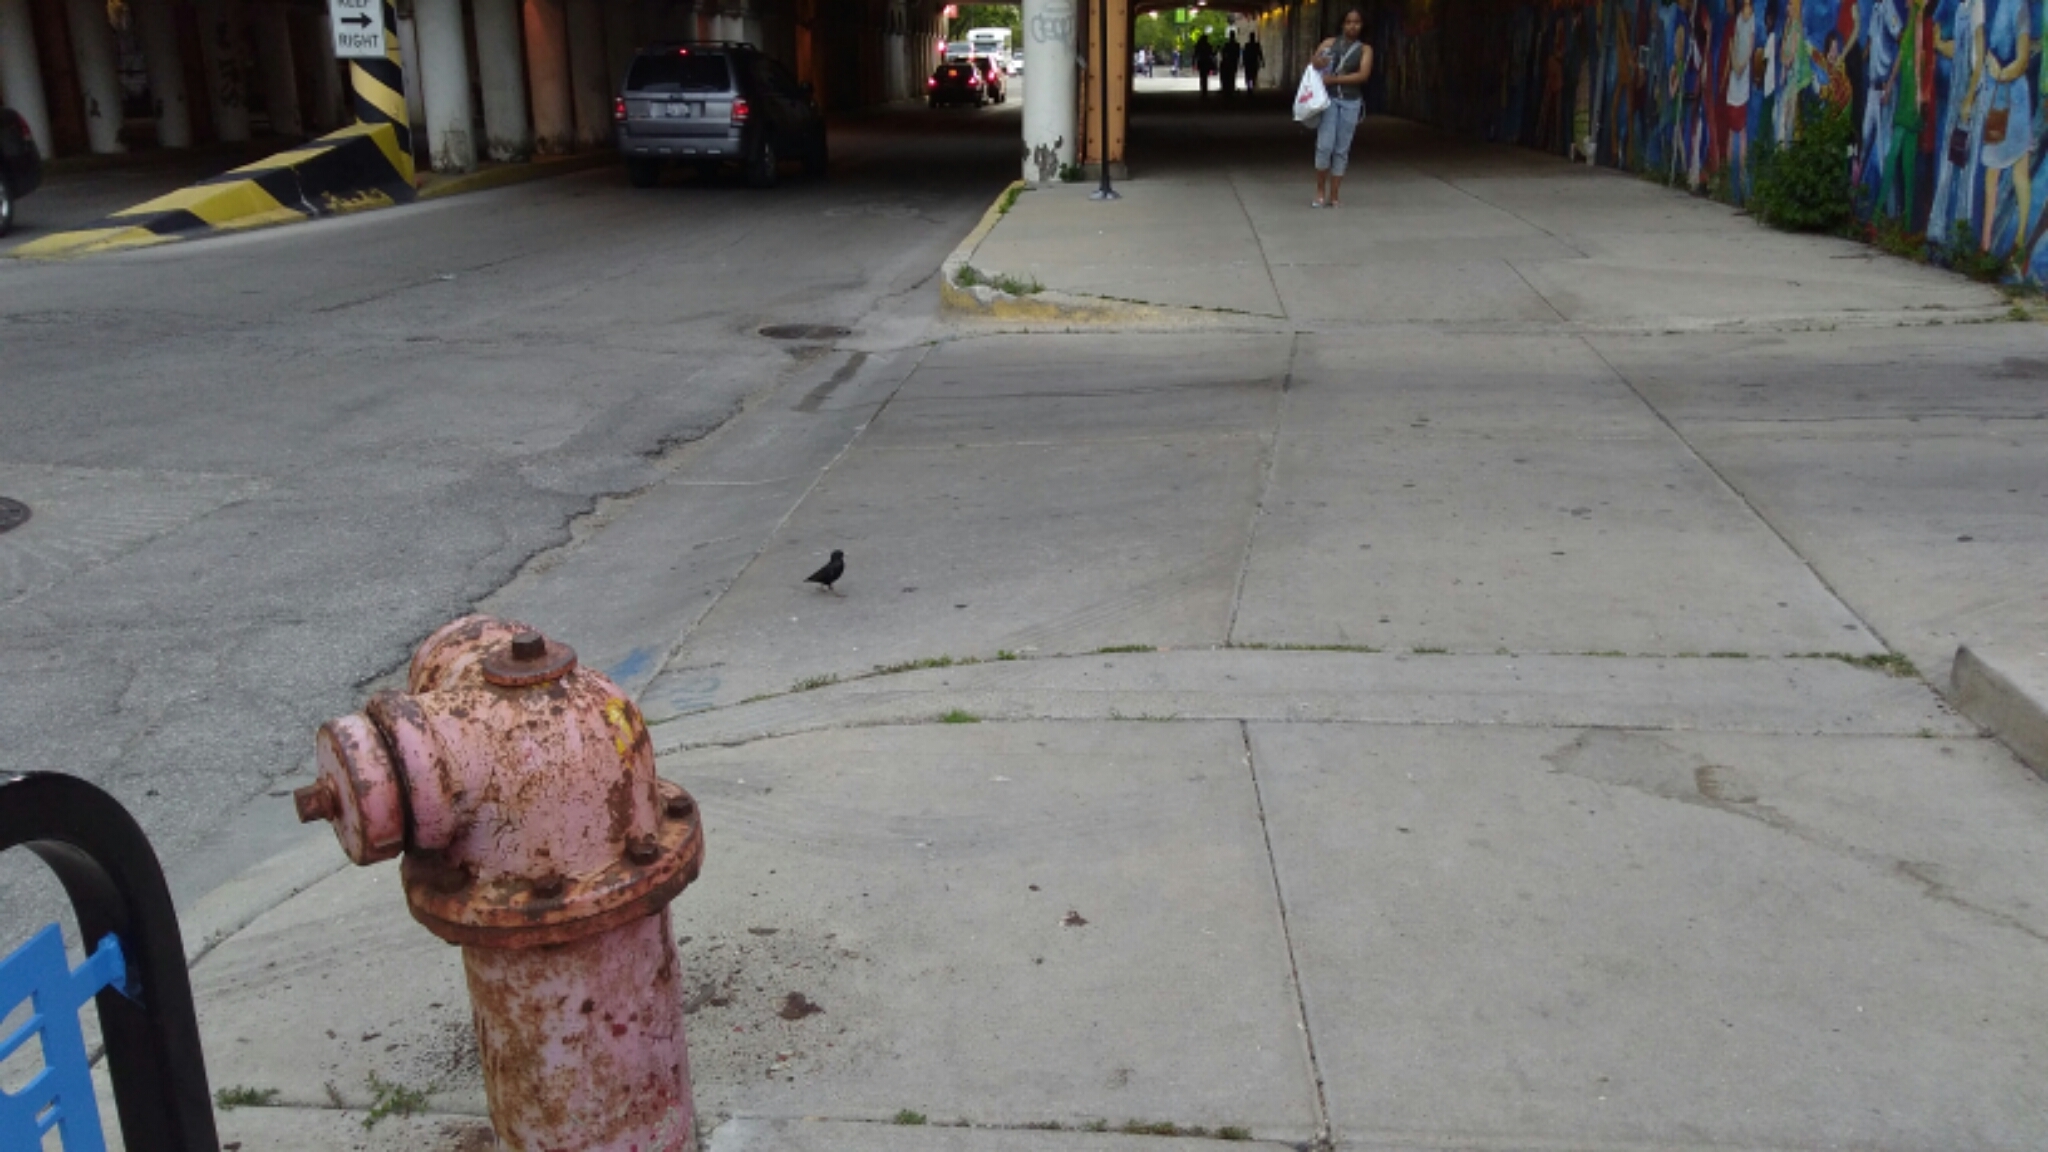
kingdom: Animalia
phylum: Chordata
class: Aves
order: Passeriformes
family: Sturnidae
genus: Sturnus
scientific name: Sturnus vulgaris
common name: Common starling
